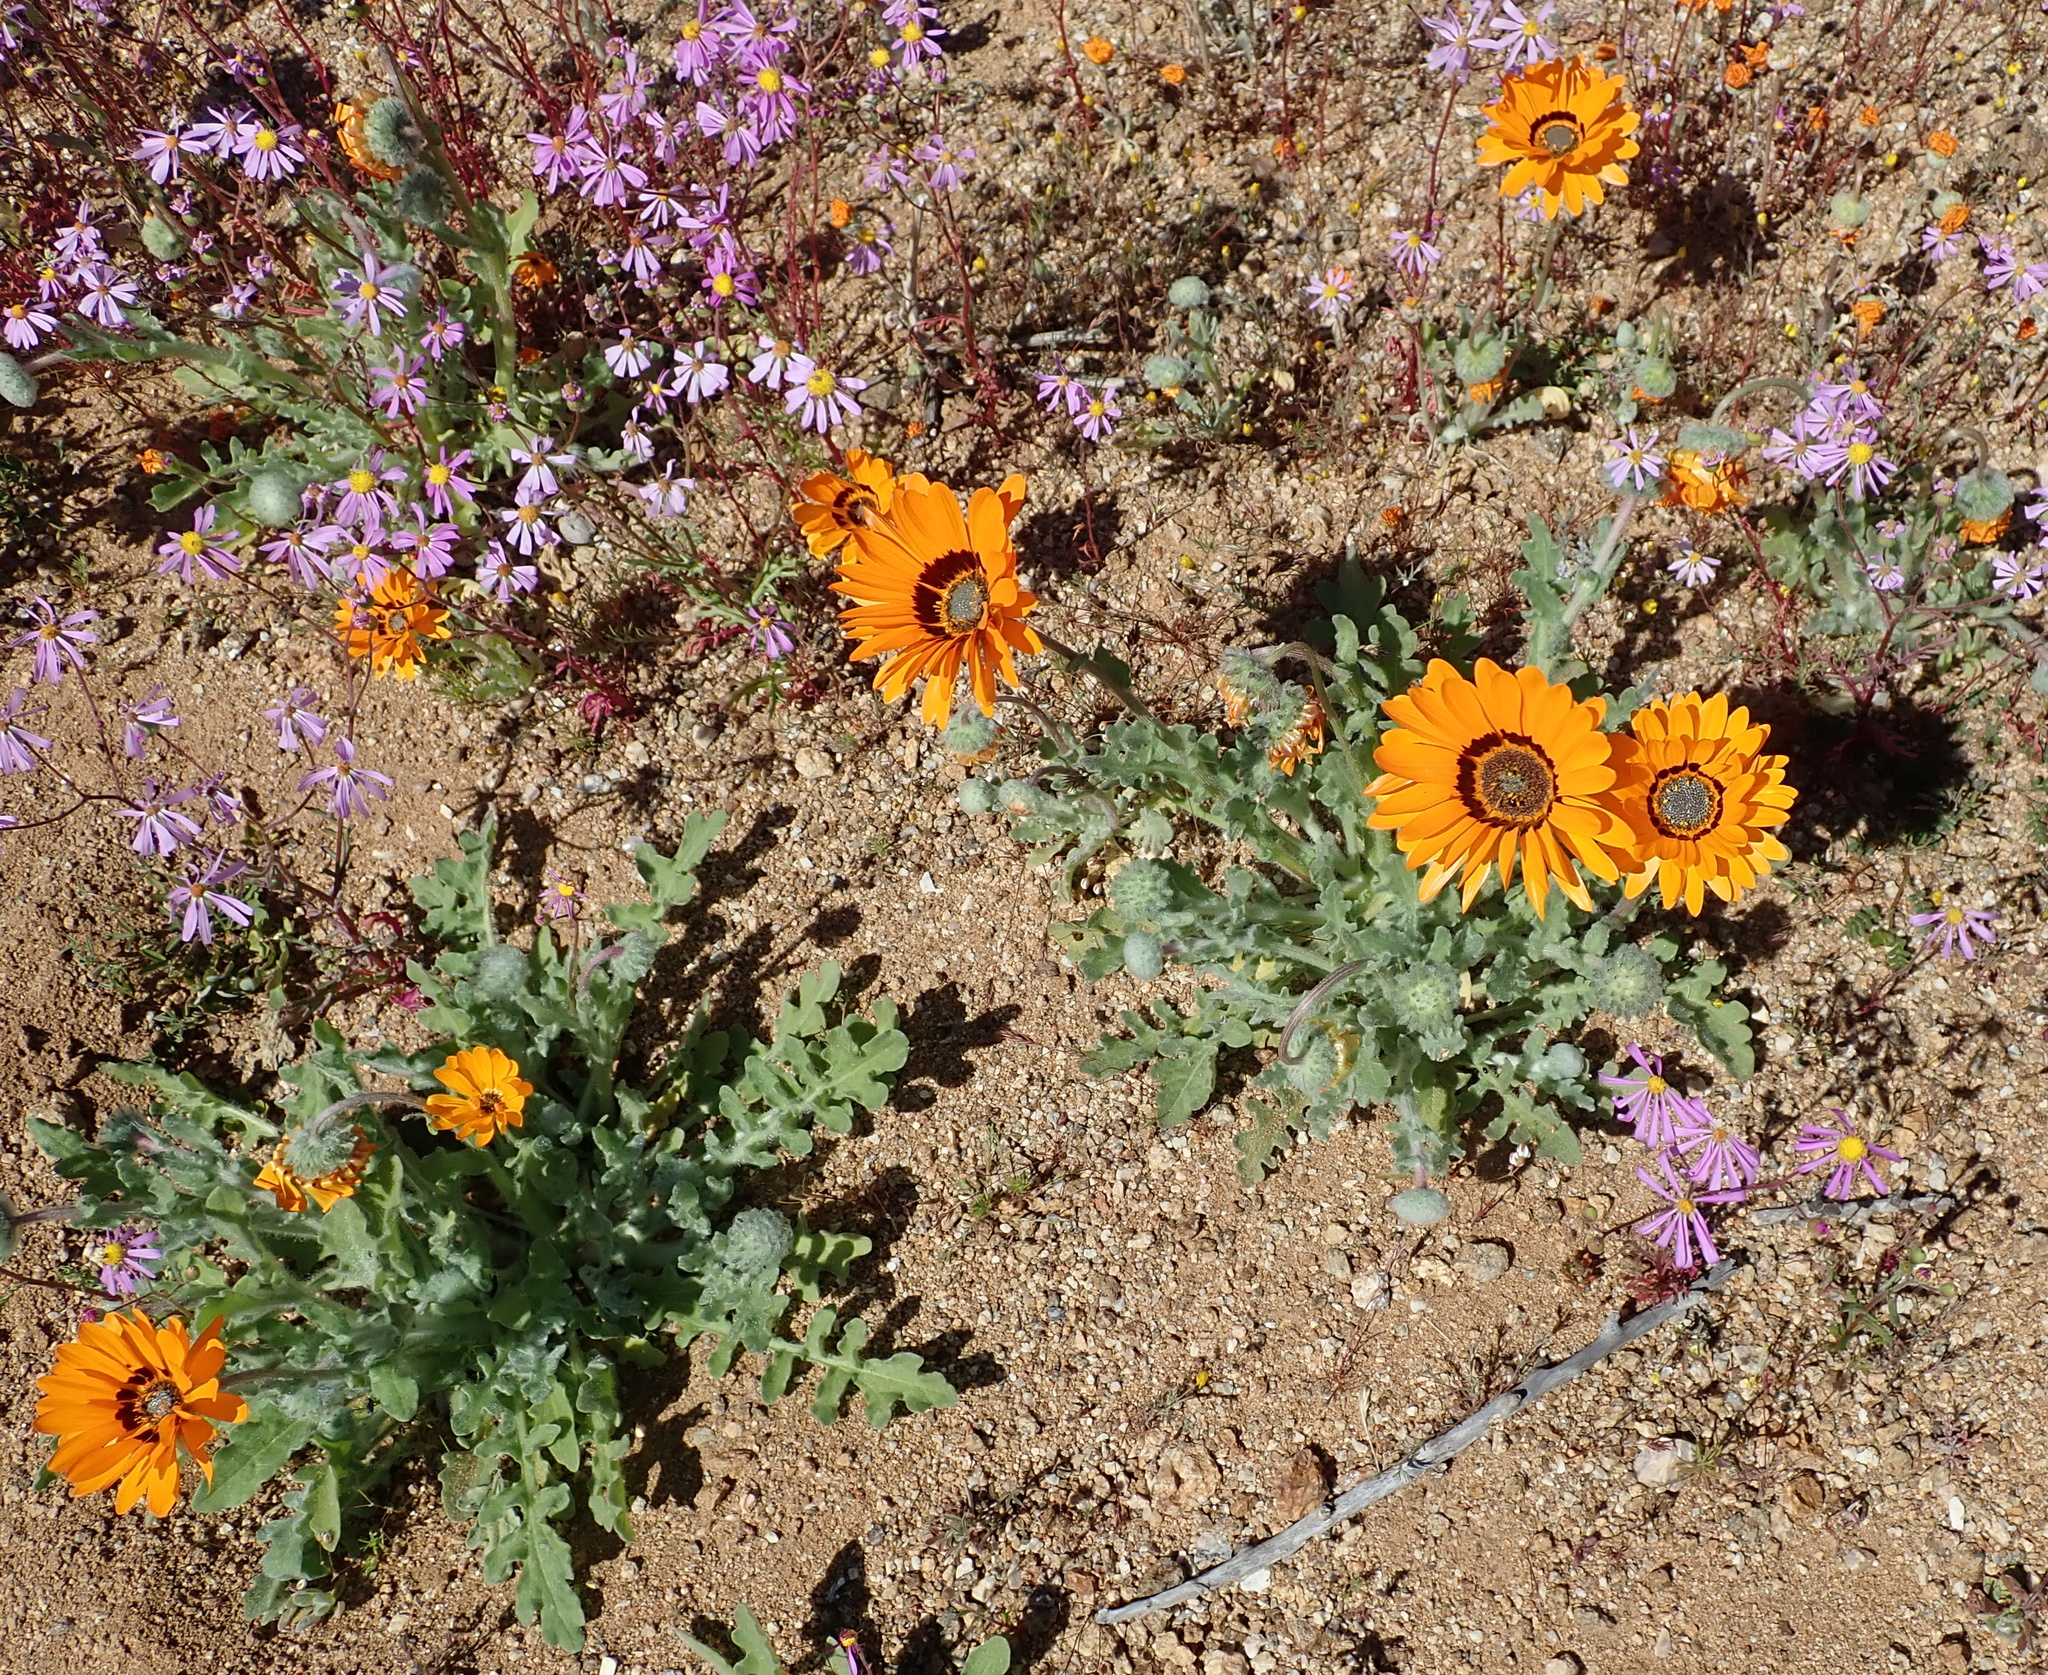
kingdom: Plantae
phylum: Tracheophyta
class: Magnoliopsida
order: Asterales
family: Asteraceae
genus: Arctotis
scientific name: Arctotis fastuosa
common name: Monarch of the veld
